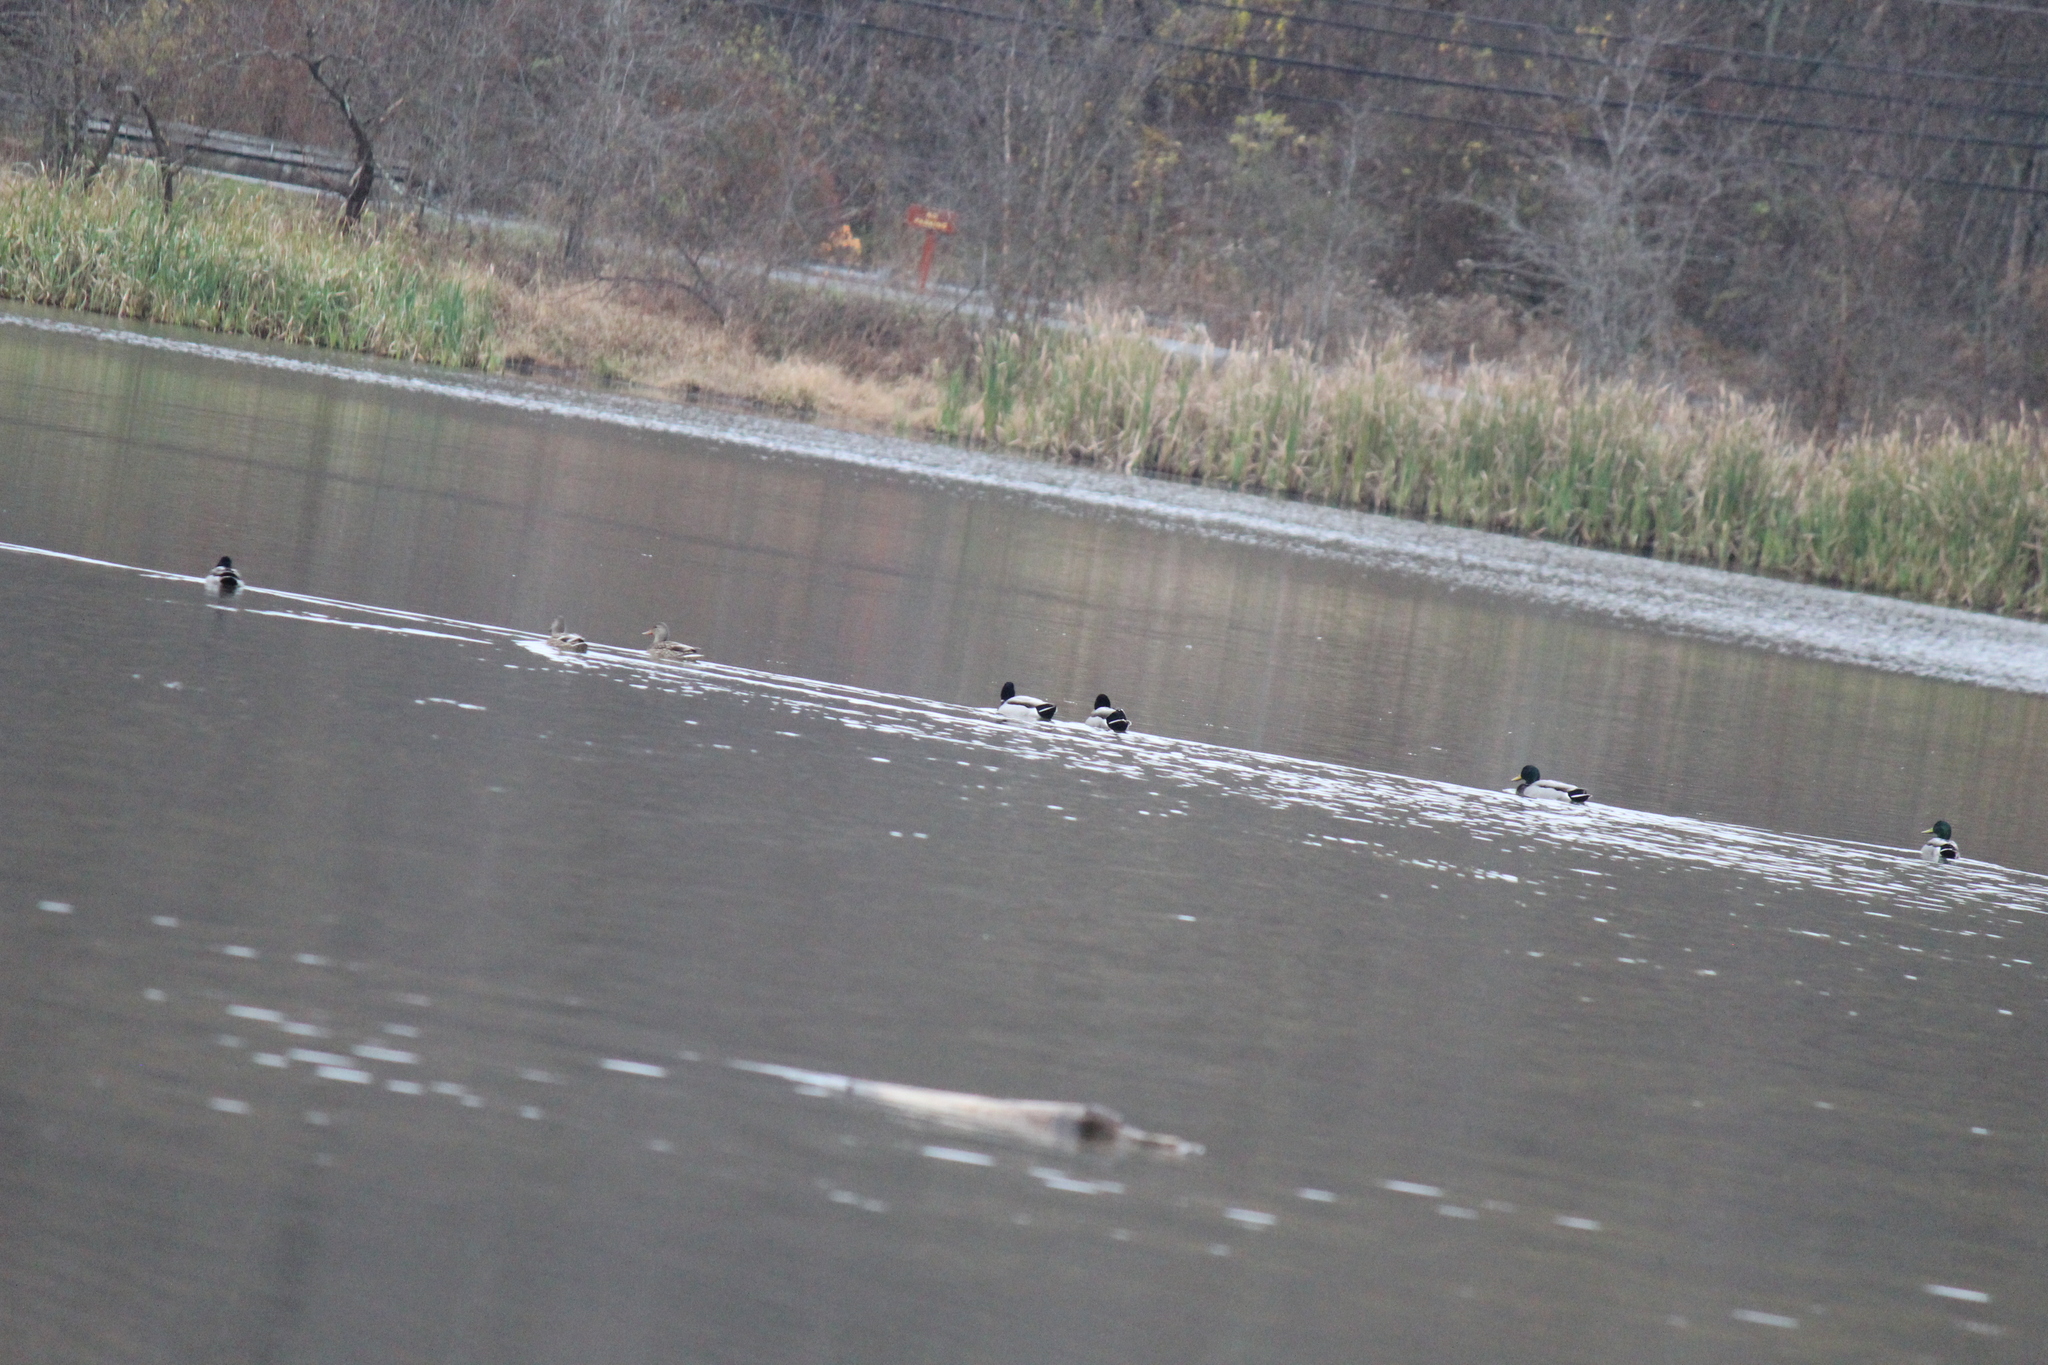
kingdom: Animalia
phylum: Chordata
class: Aves
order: Anseriformes
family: Anatidae
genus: Anas
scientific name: Anas platyrhynchos
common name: Mallard
